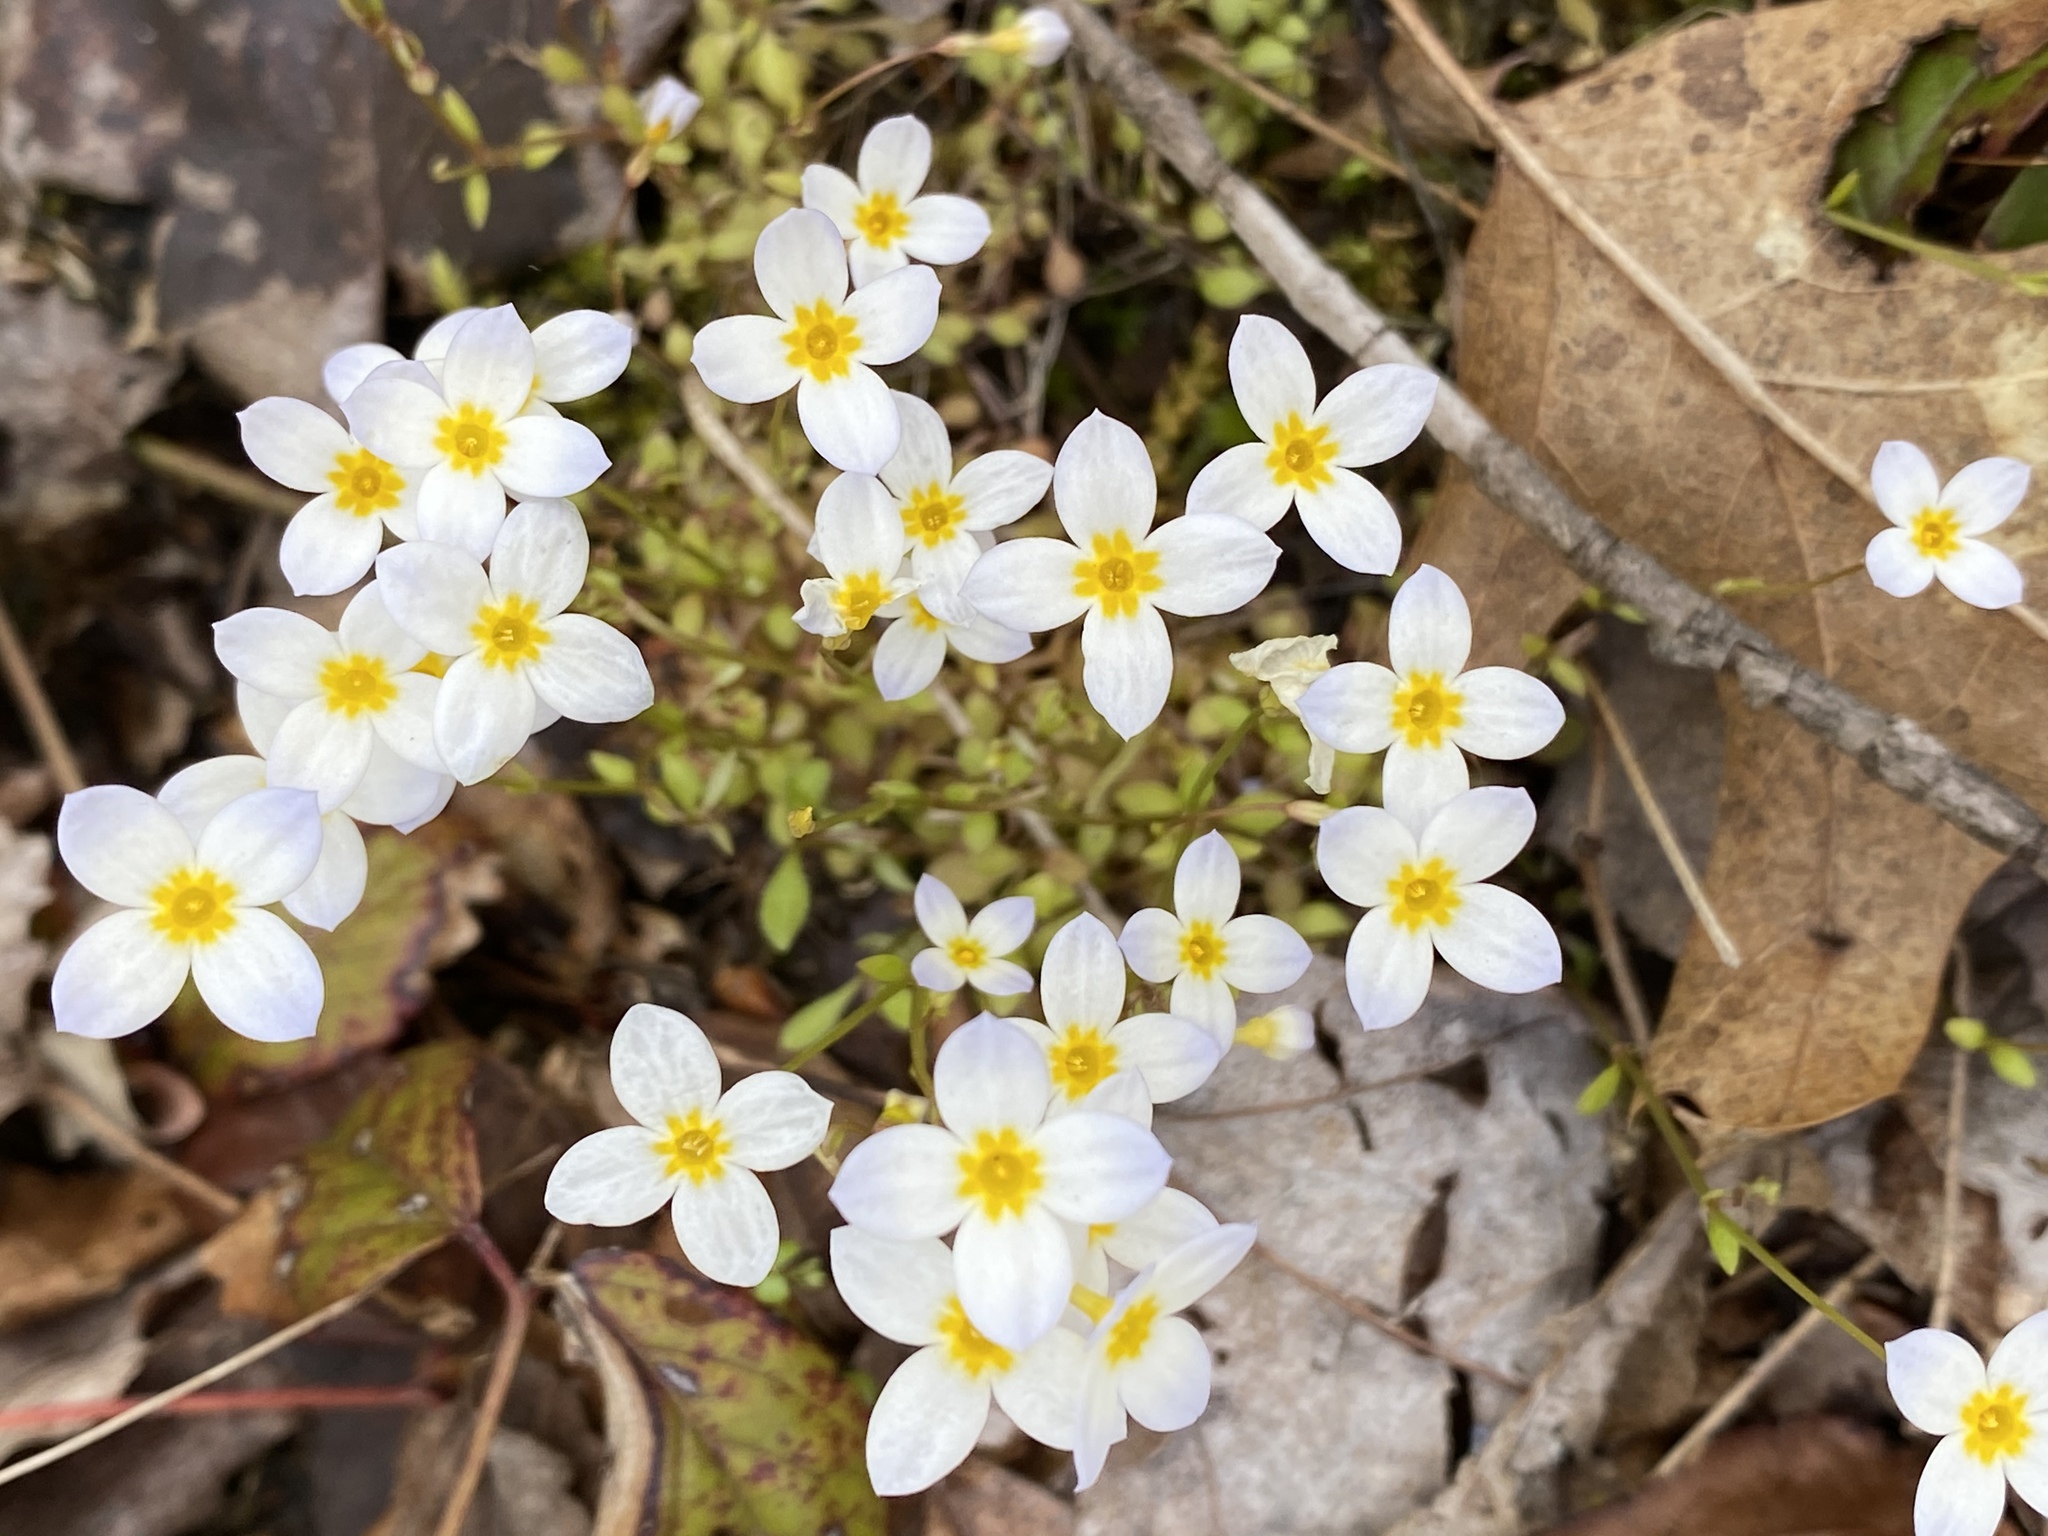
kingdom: Plantae
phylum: Tracheophyta
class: Magnoliopsida
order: Gentianales
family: Rubiaceae
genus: Houstonia
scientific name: Houstonia caerulea
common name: Bluets
